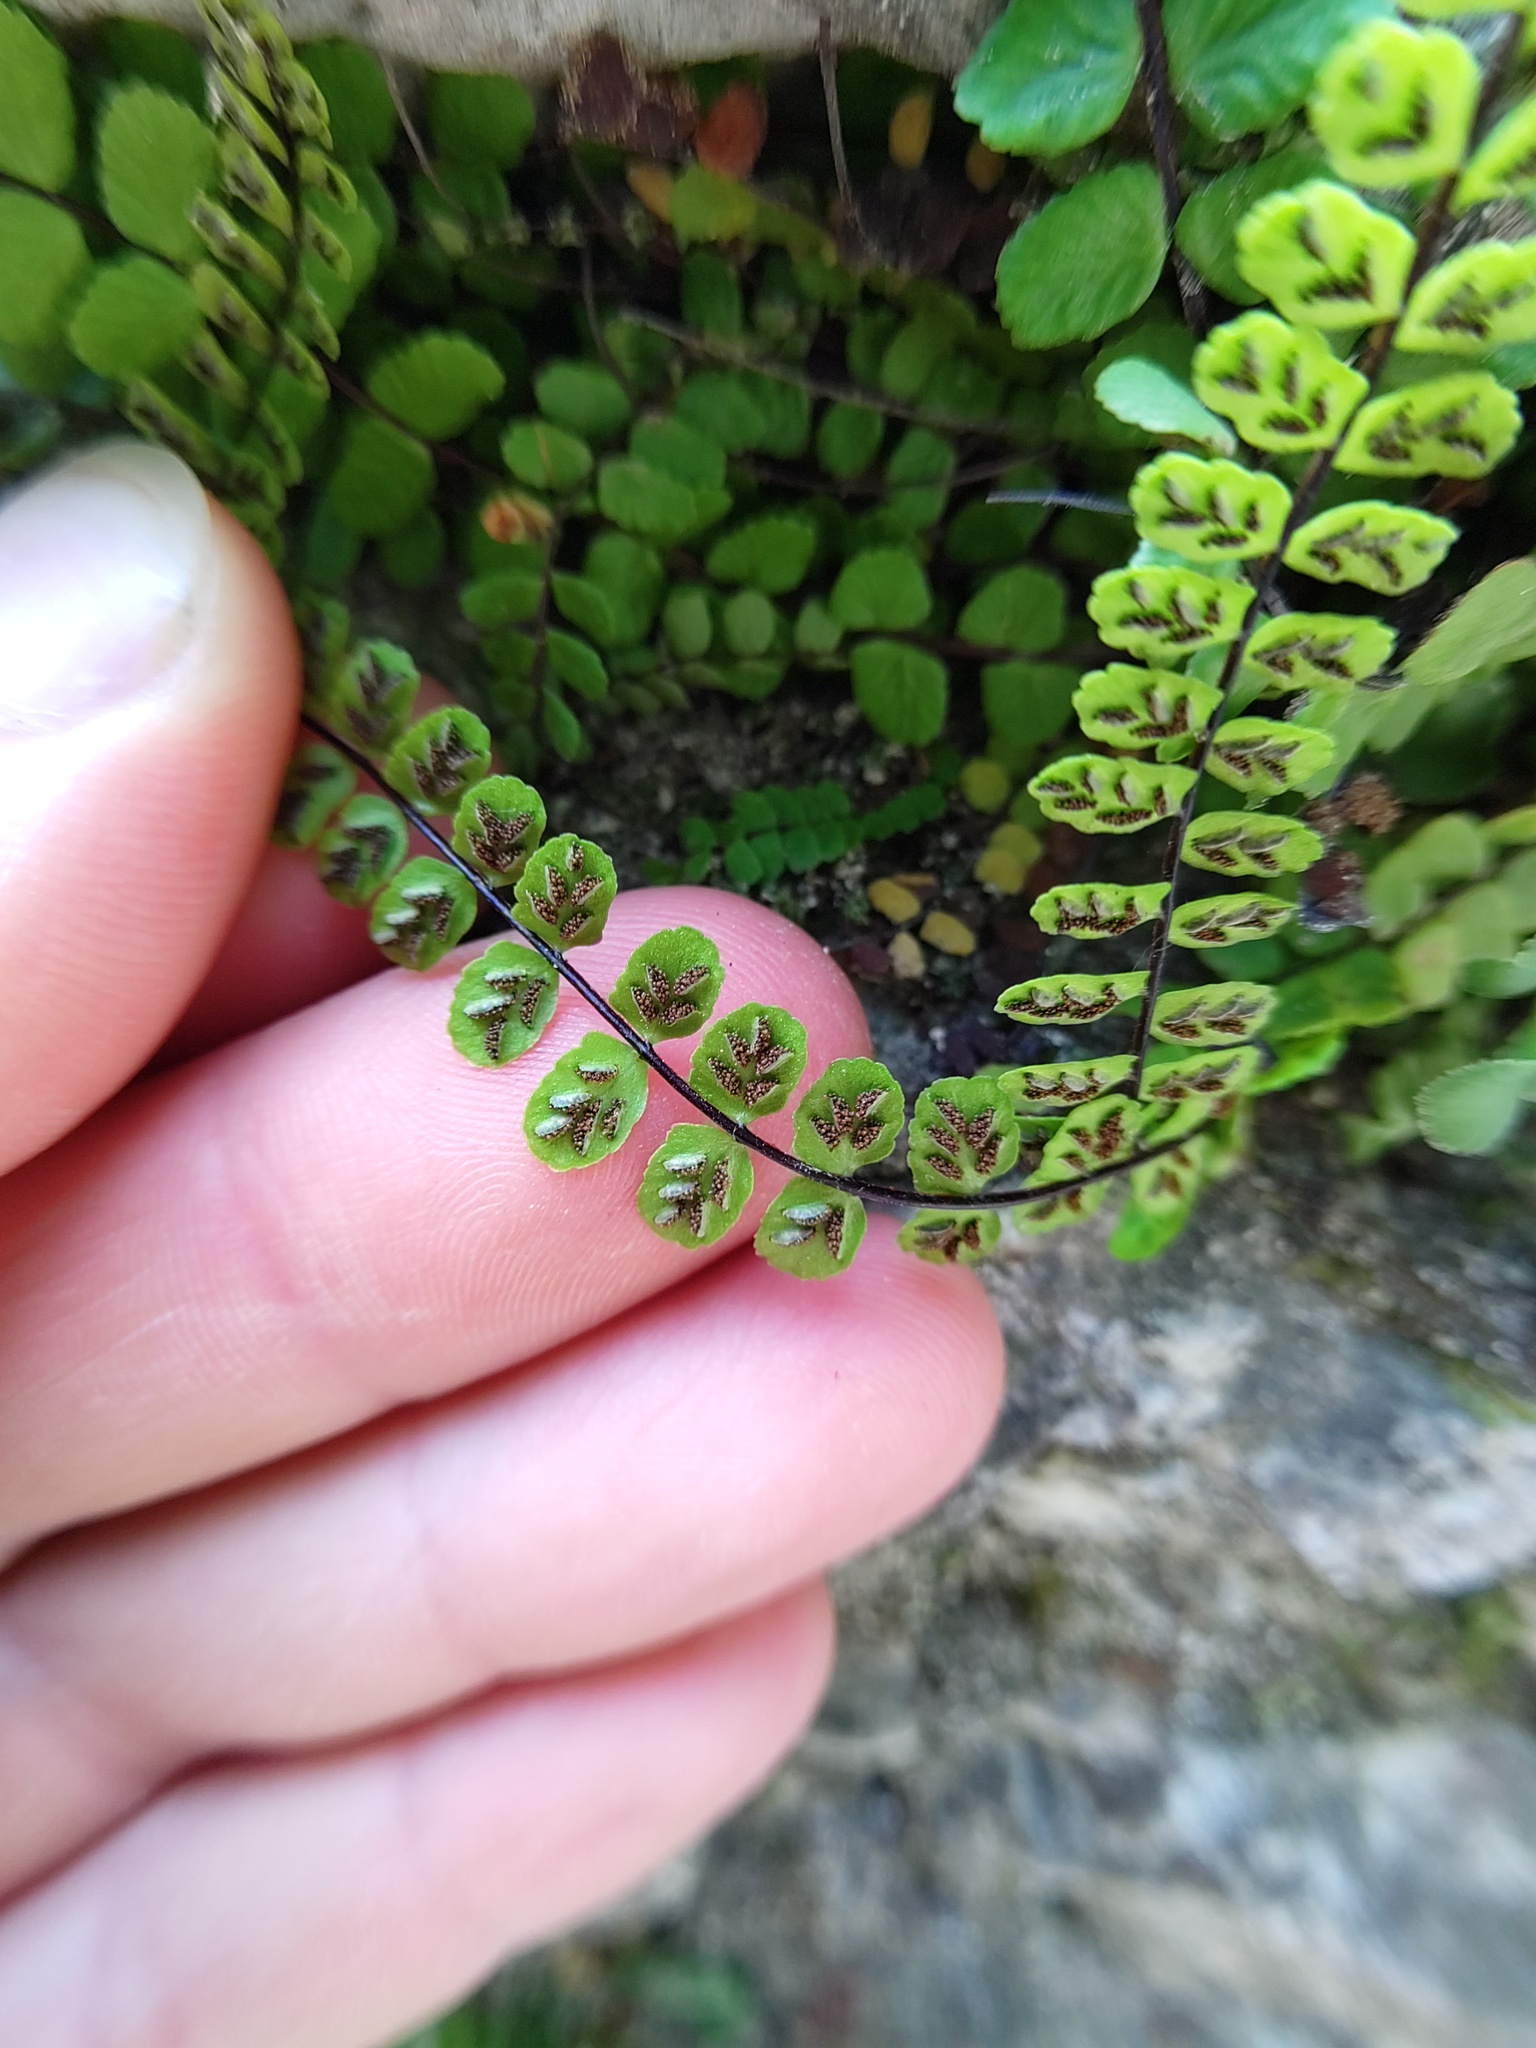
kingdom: Plantae
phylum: Tracheophyta
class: Polypodiopsida
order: Polypodiales
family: Aspleniaceae
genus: Asplenium
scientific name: Asplenium trichomanes
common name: Maidenhair spleenwort
